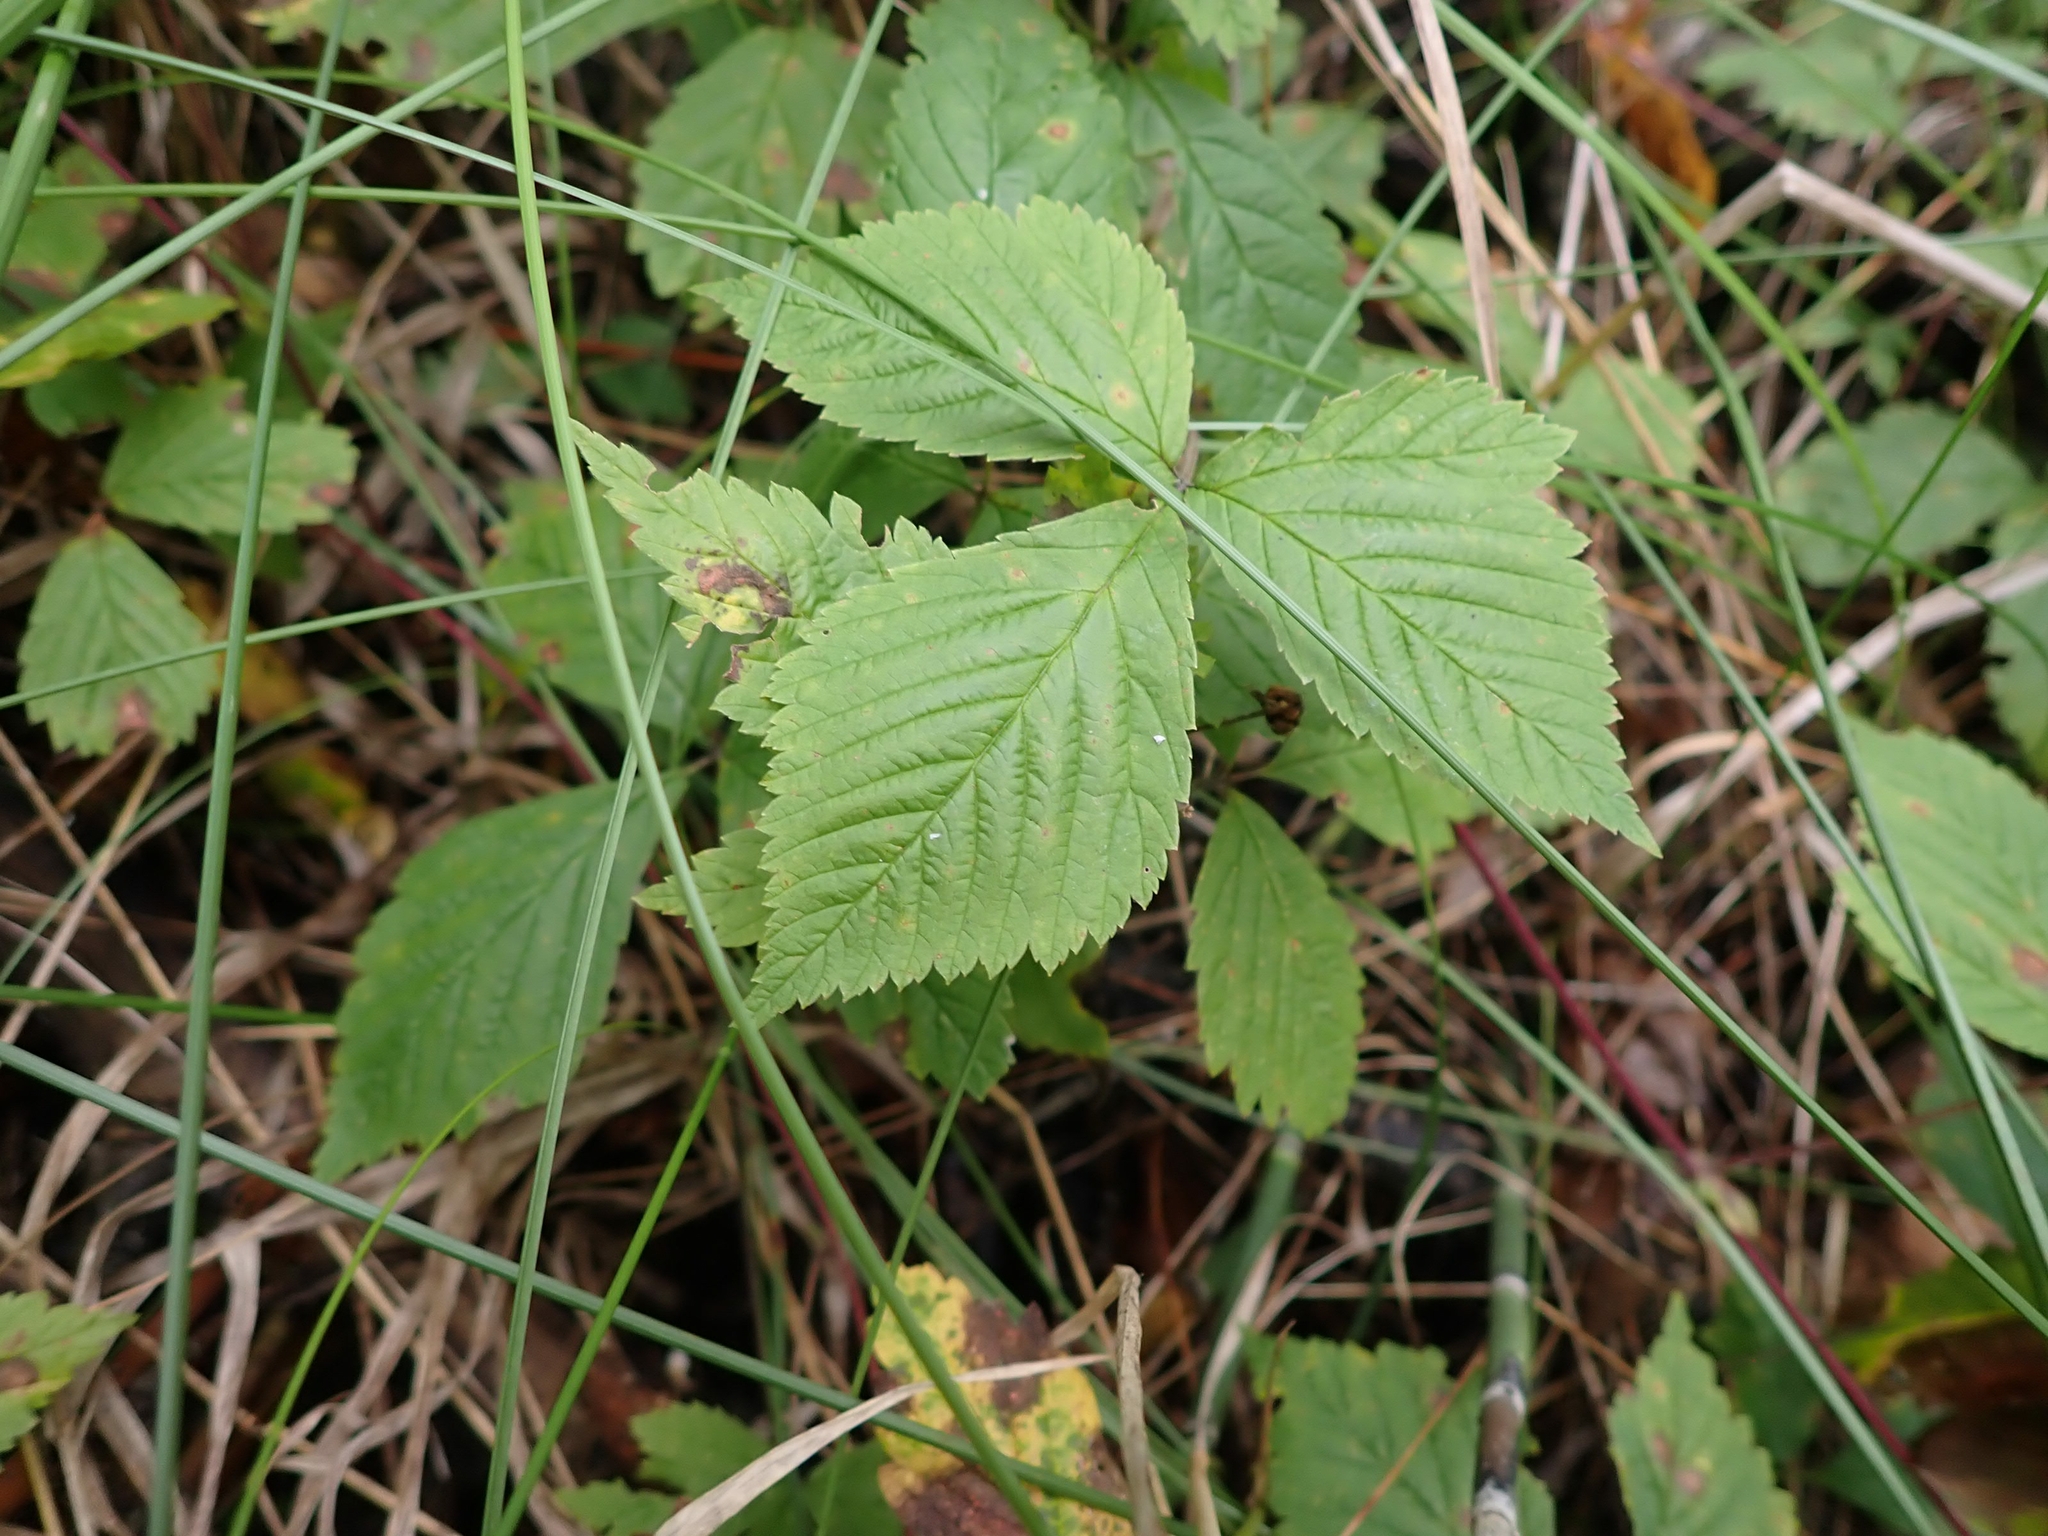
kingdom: Plantae
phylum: Tracheophyta
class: Magnoliopsida
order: Rosales
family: Rosaceae
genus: Rubus
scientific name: Rubus pubescens
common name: Dwarf raspberry
